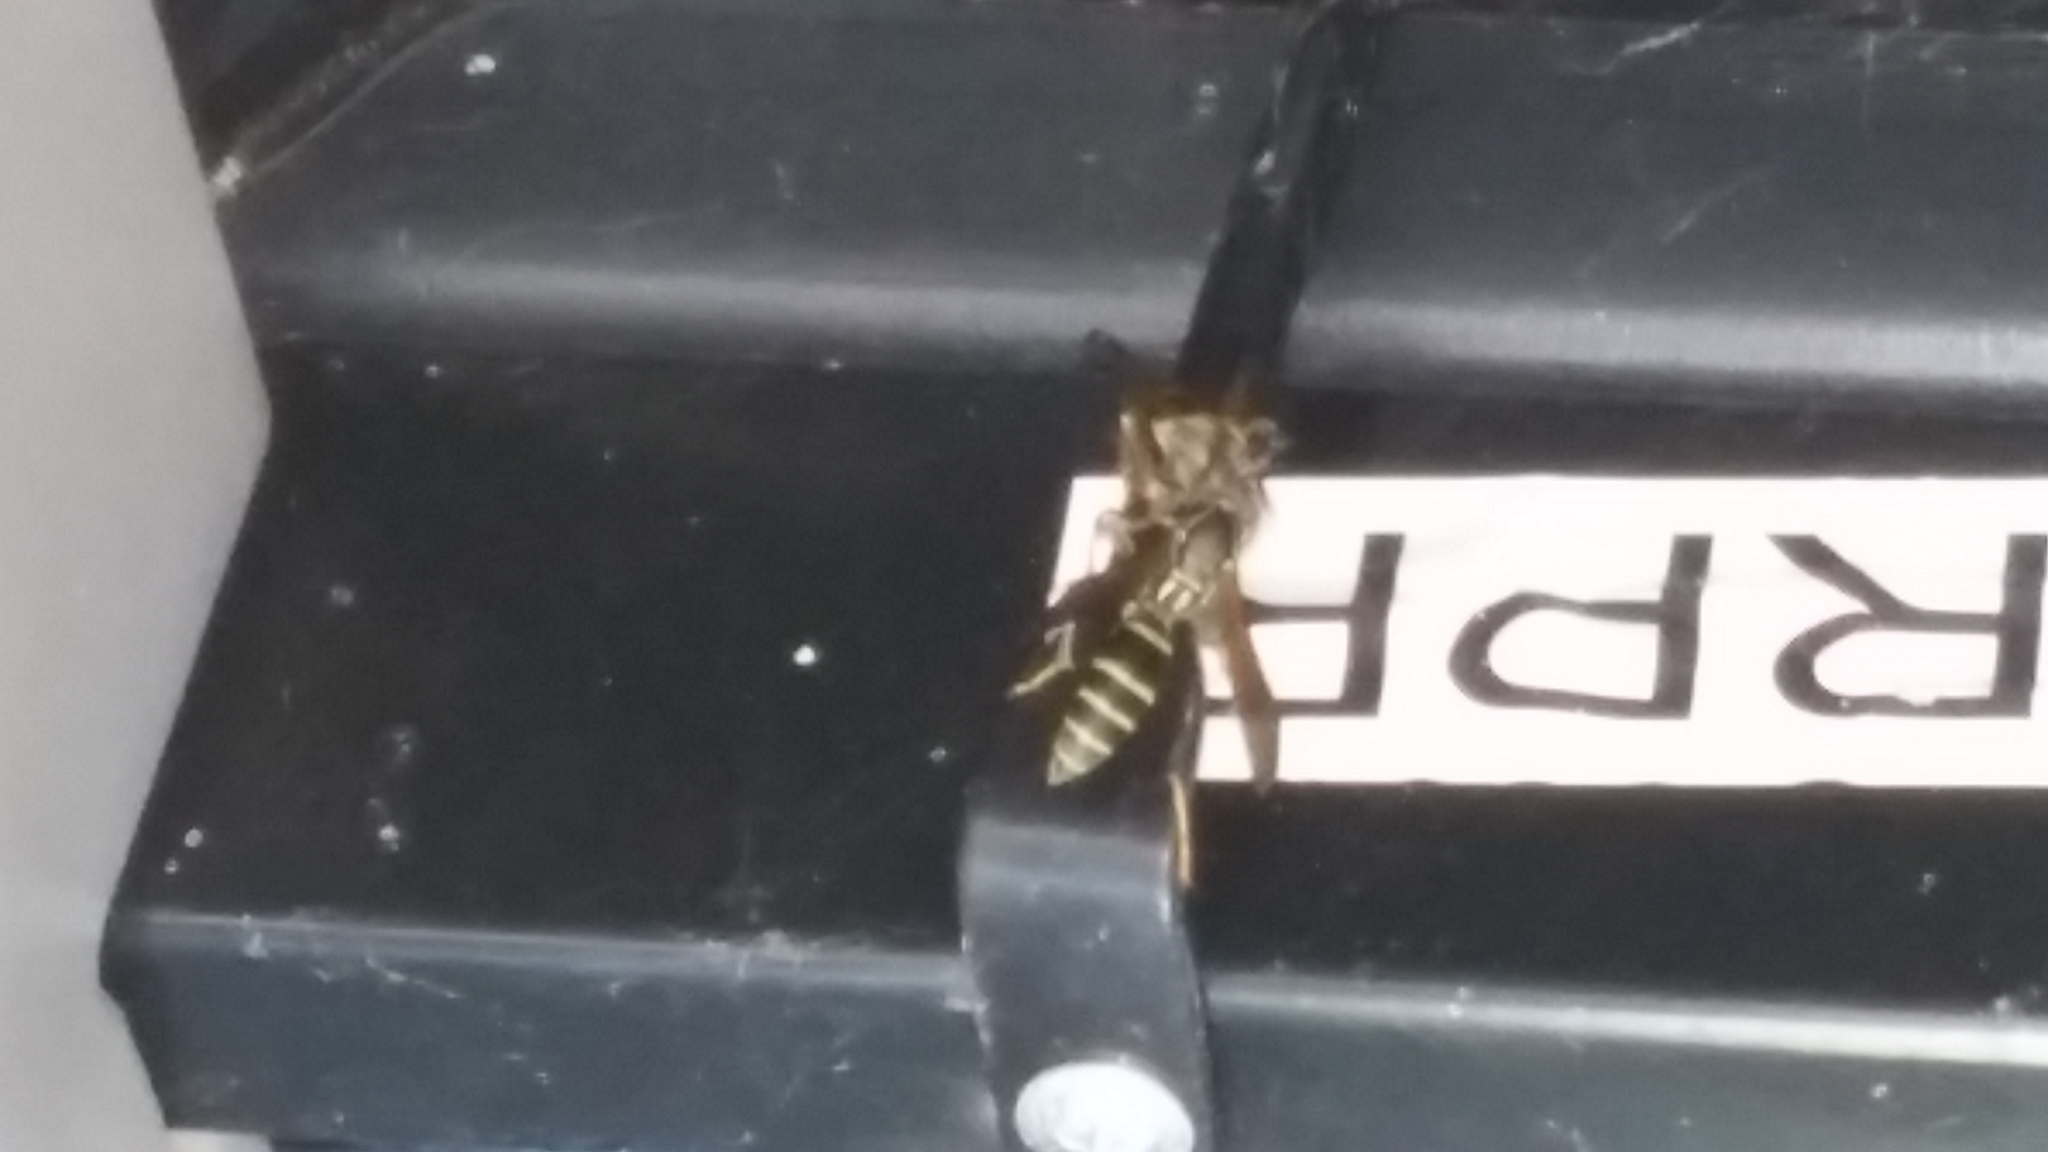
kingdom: Animalia
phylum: Arthropoda
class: Insecta
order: Hymenoptera
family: Eumenidae
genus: Polistes
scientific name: Polistes fuscatus
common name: Dark paper wasp
